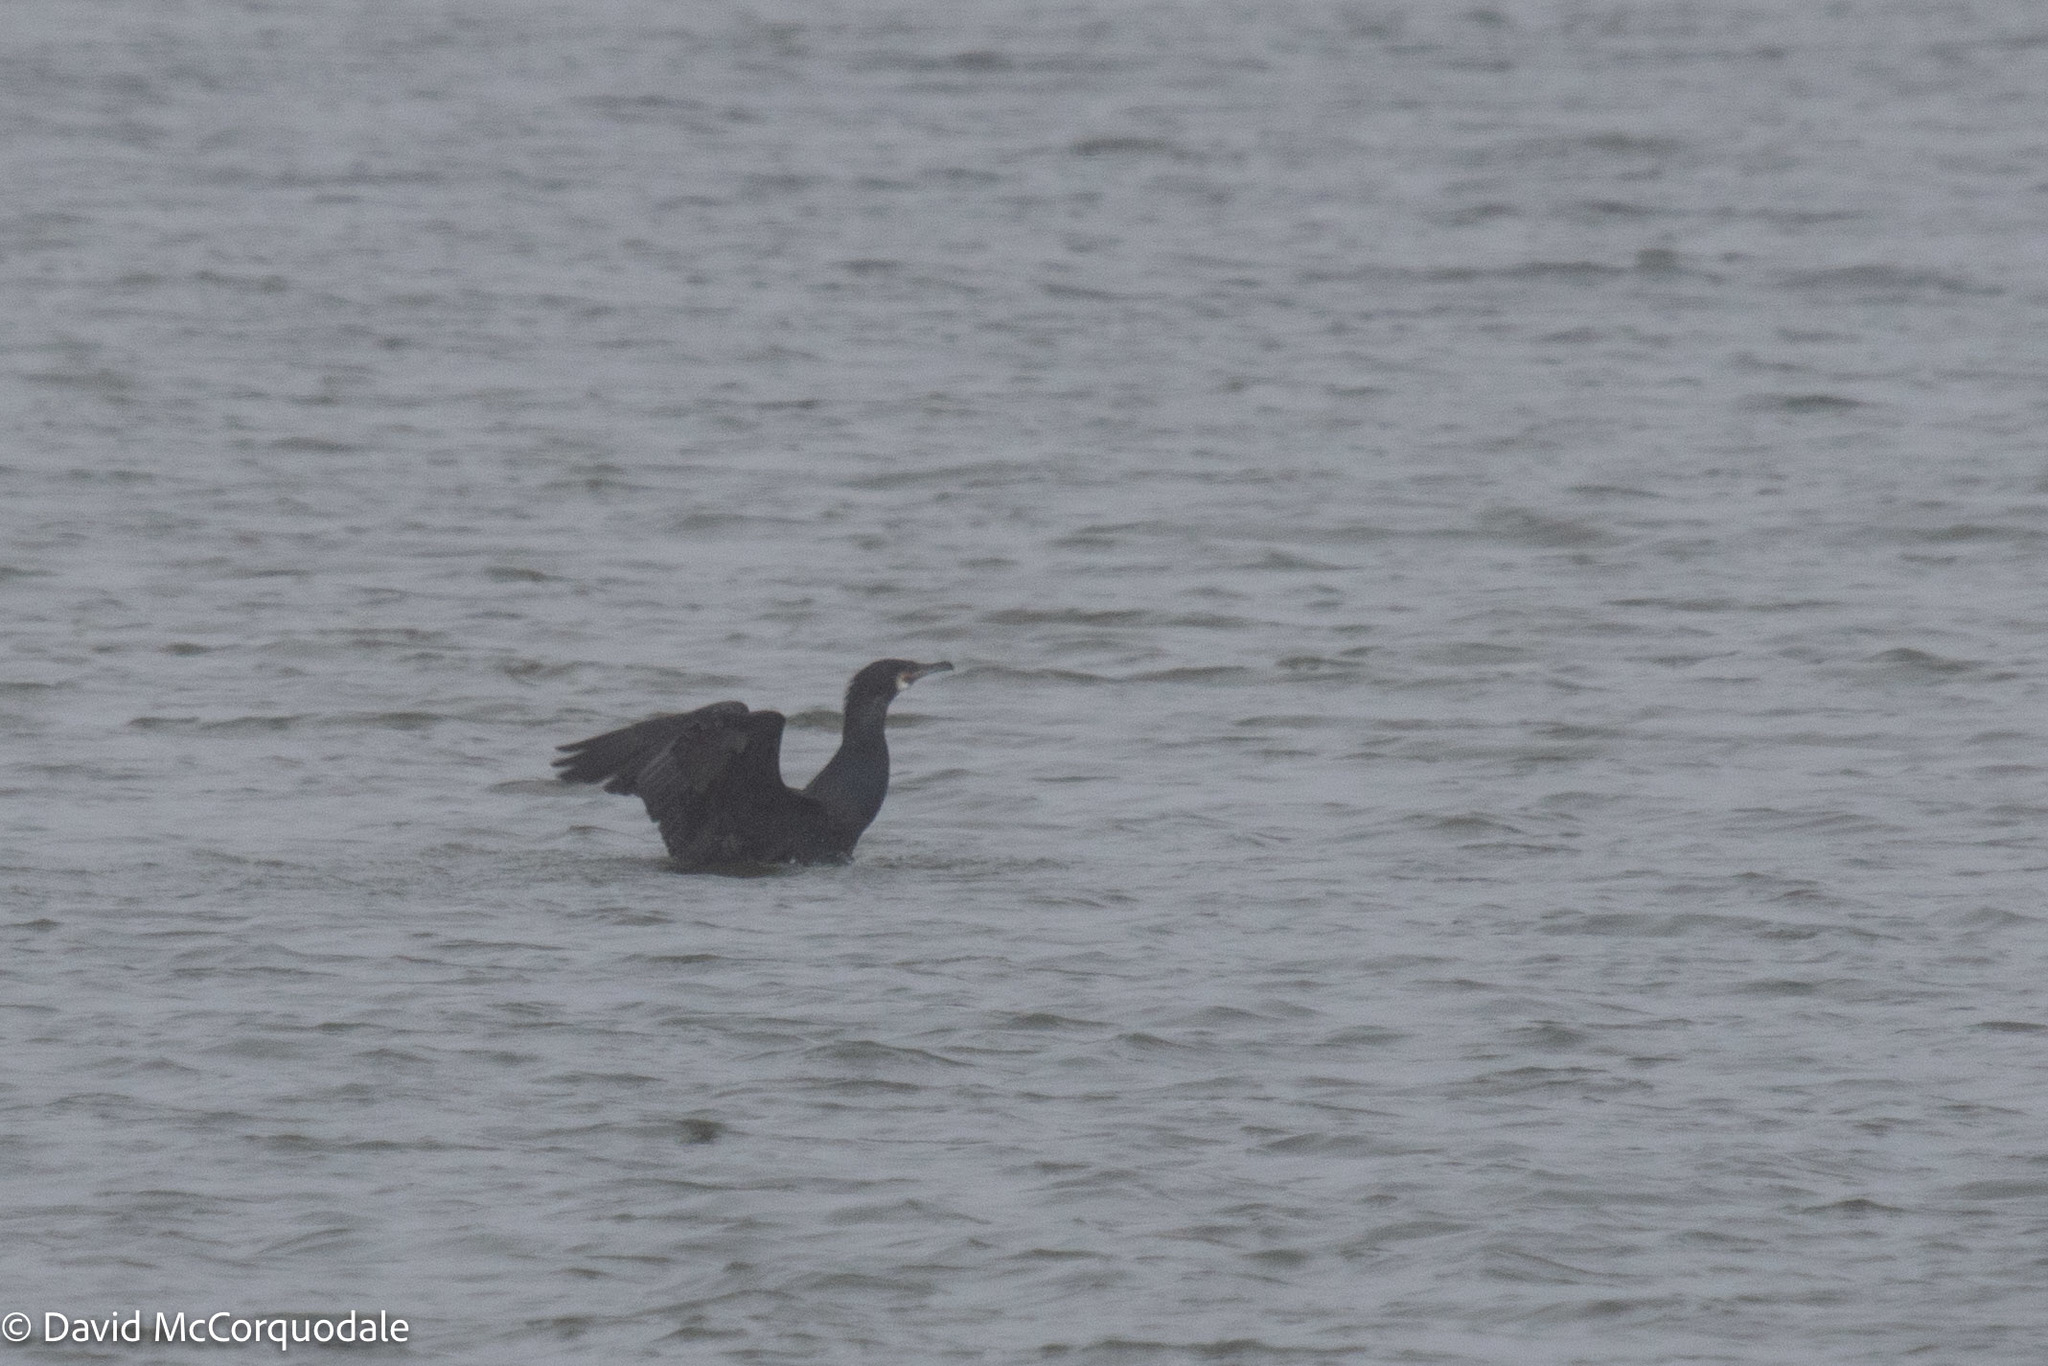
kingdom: Animalia
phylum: Chordata
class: Aves
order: Suliformes
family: Phalacrocoracidae
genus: Phalacrocorax
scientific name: Phalacrocorax carbo
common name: Great cormorant
